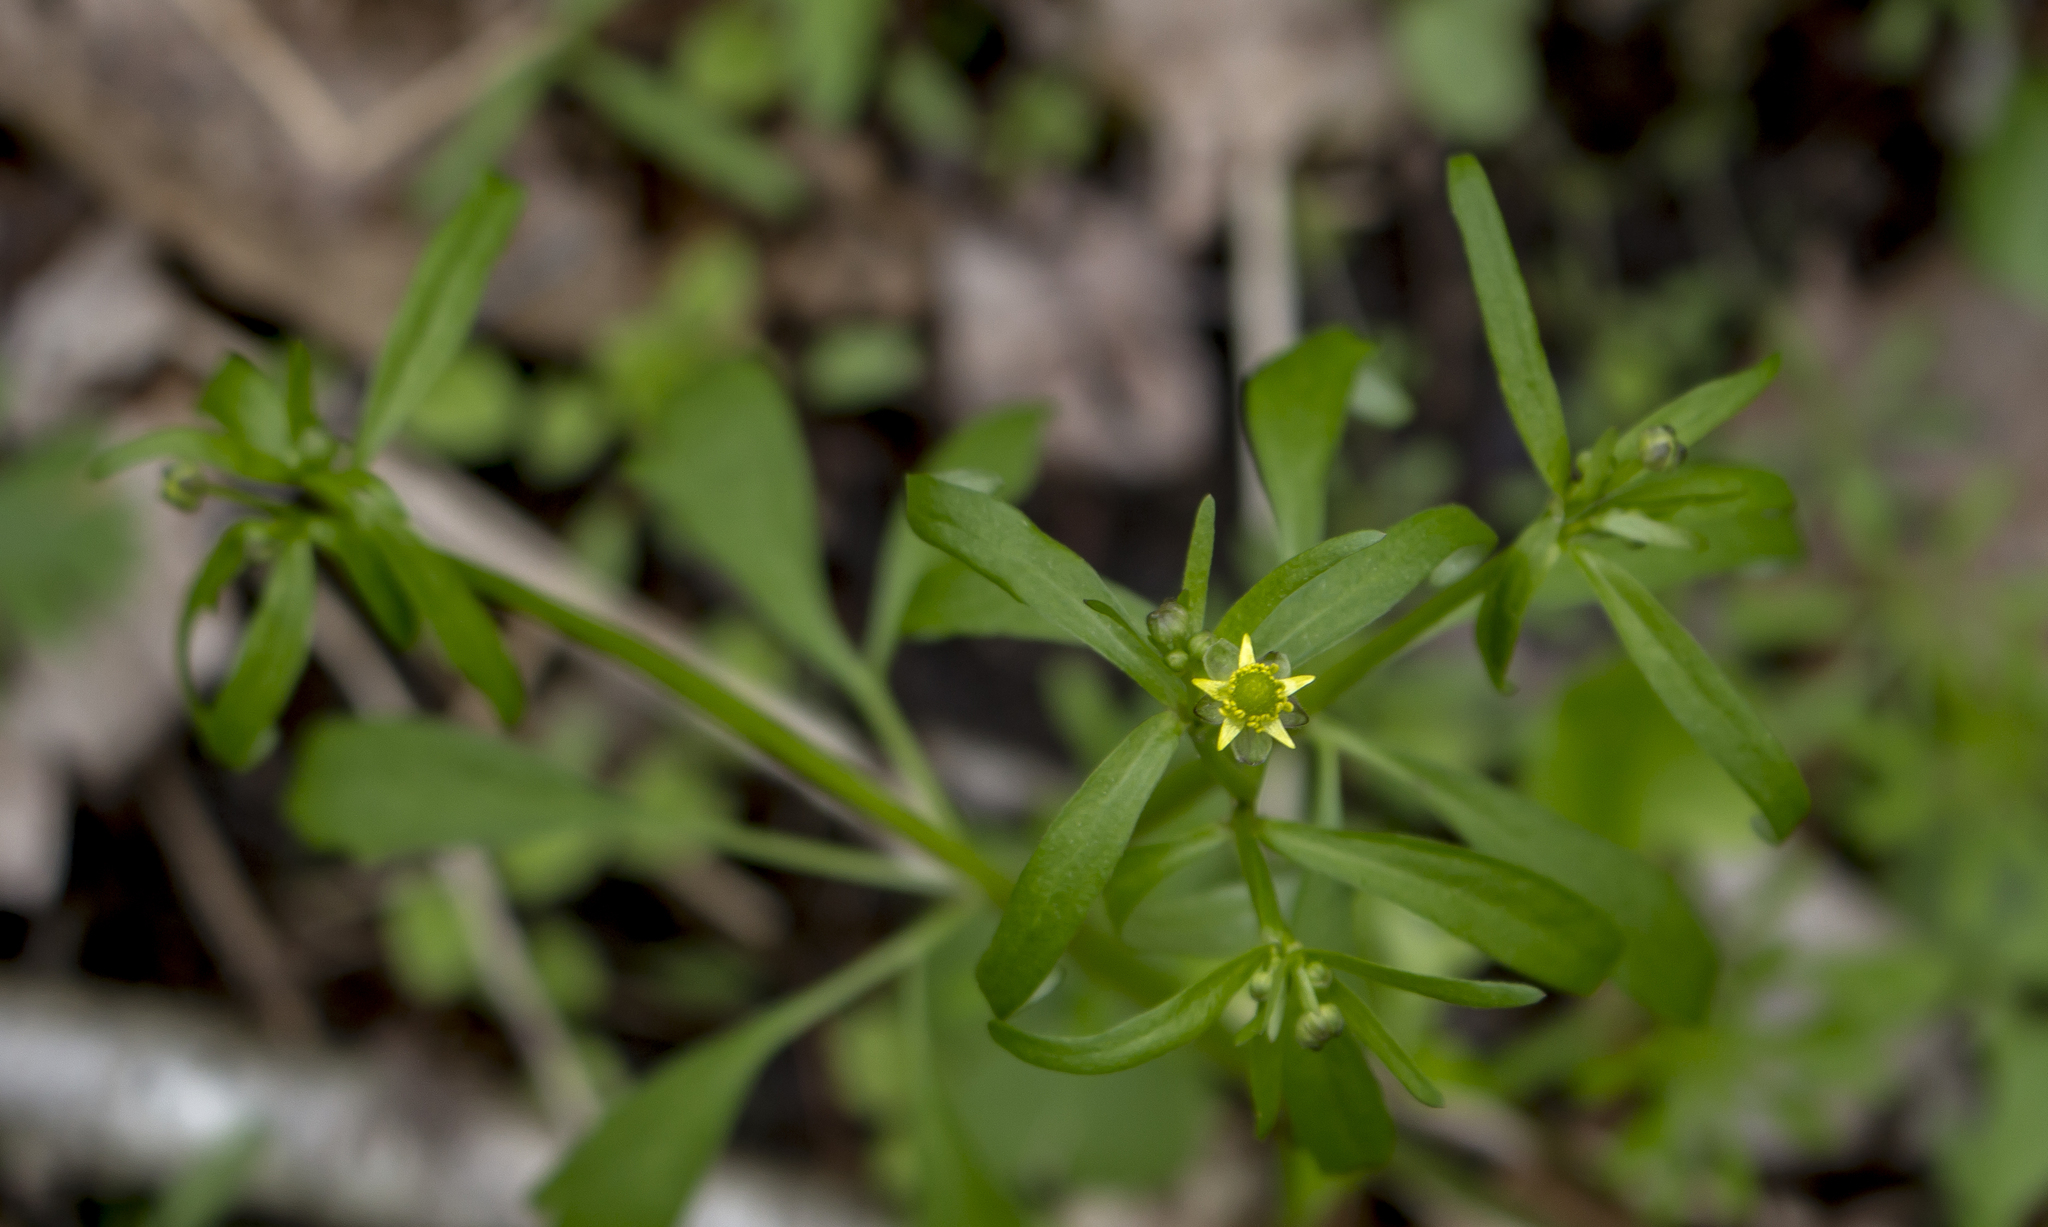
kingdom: Plantae
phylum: Tracheophyta
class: Magnoliopsida
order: Ranunculales
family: Ranunculaceae
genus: Ranunculus
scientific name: Ranunculus abortivus
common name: Early wood buttercup
